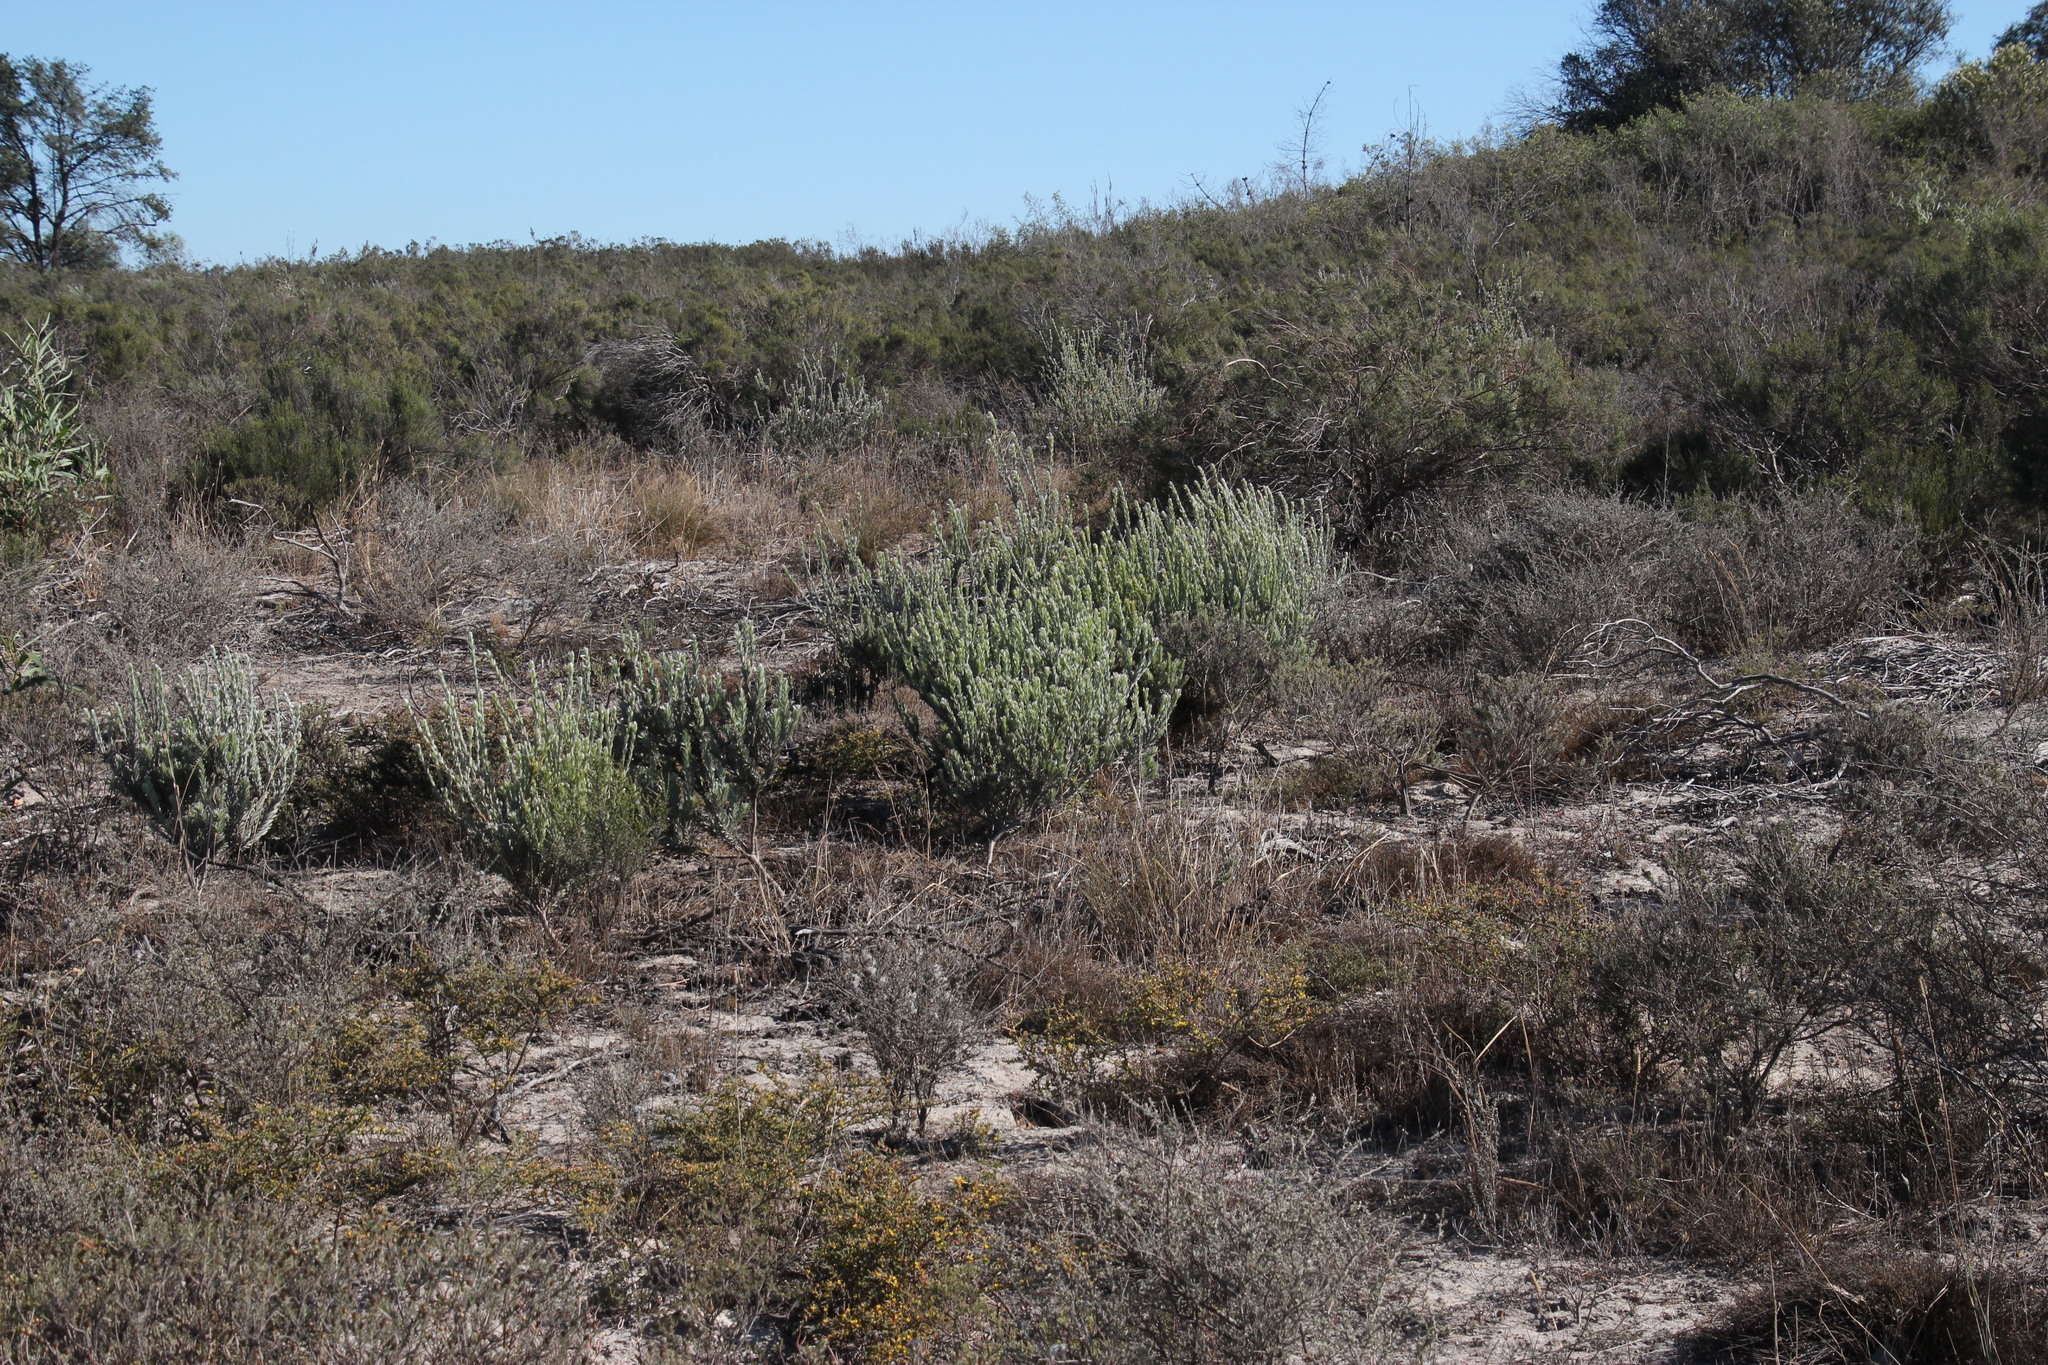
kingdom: Plantae
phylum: Tracheophyta
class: Magnoliopsida
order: Proteales
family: Proteaceae
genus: Leucadendron
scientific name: Leucadendron verticillatum
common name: Klapmuts conebush
